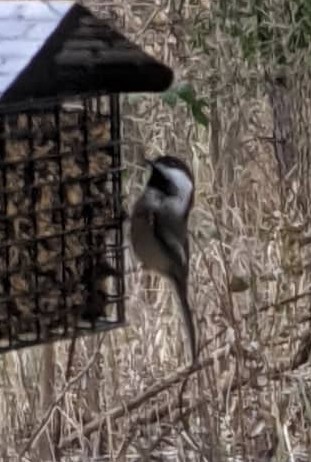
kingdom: Animalia
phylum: Chordata
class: Aves
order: Passeriformes
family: Paridae
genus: Poecile
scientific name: Poecile atricapillus
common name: Black-capped chickadee
